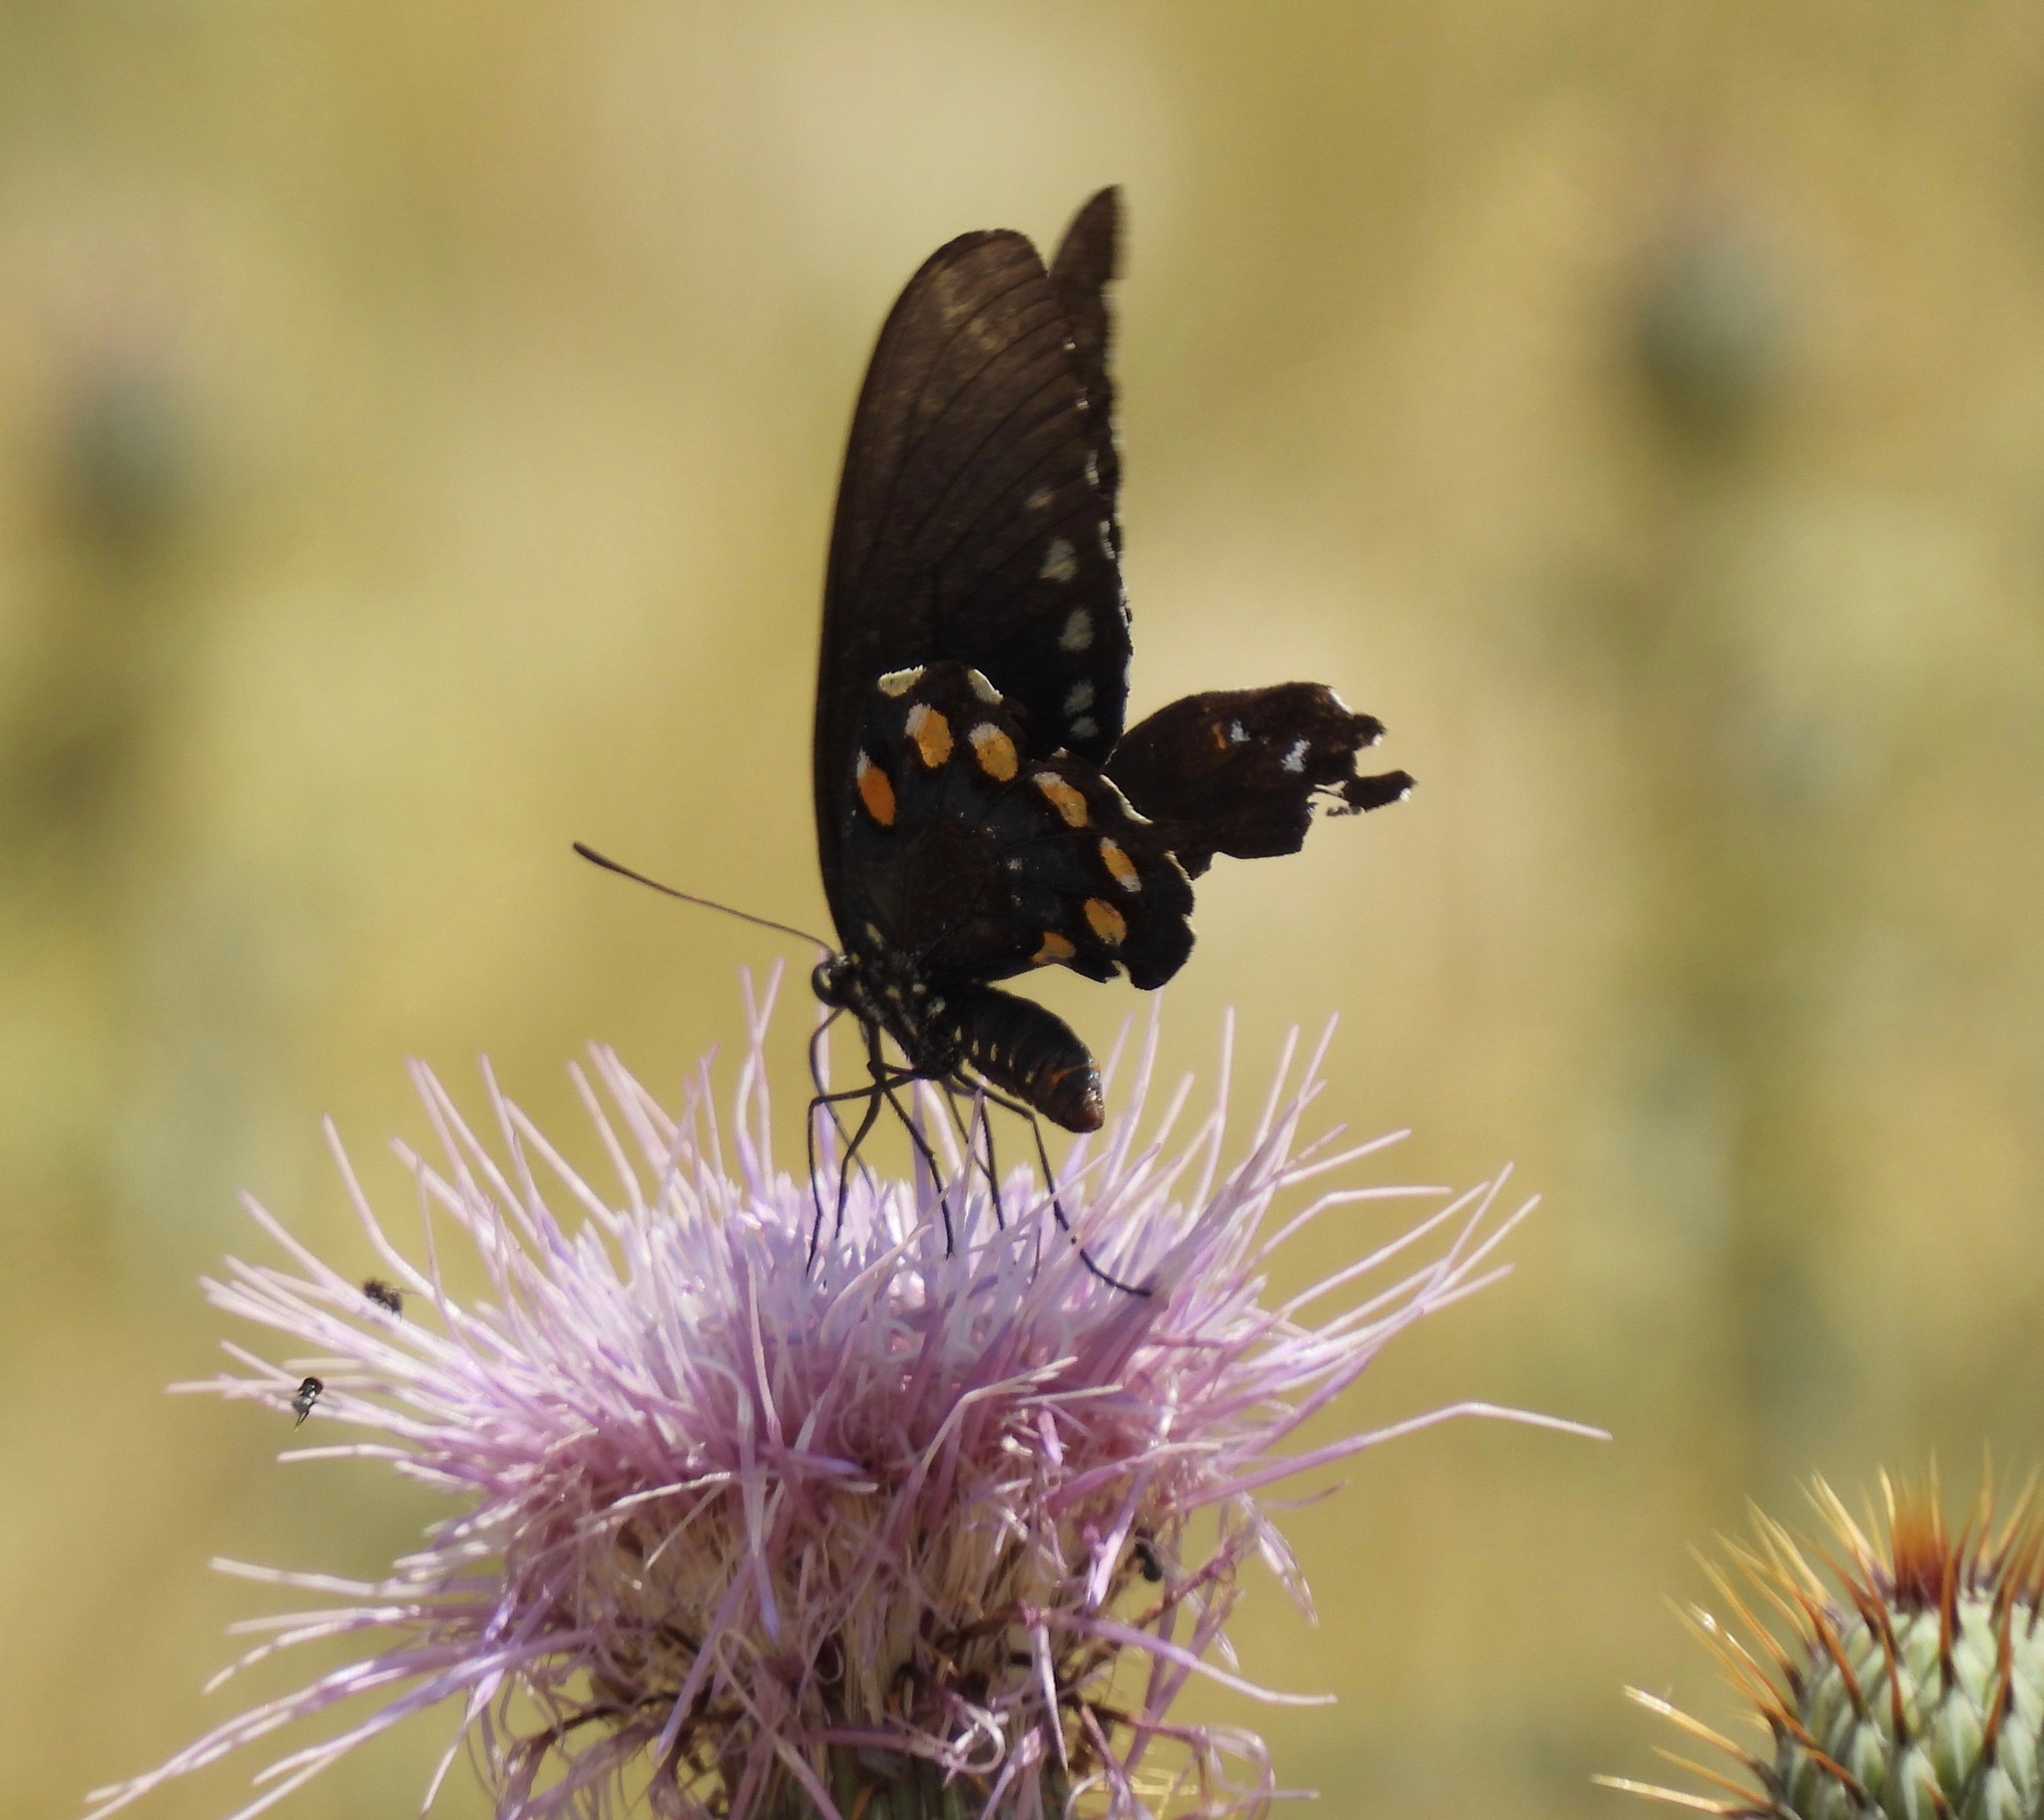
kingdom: Animalia
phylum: Arthropoda
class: Insecta
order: Lepidoptera
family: Papilionidae
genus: Battus
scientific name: Battus philenor
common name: Pipevine swallowtail
